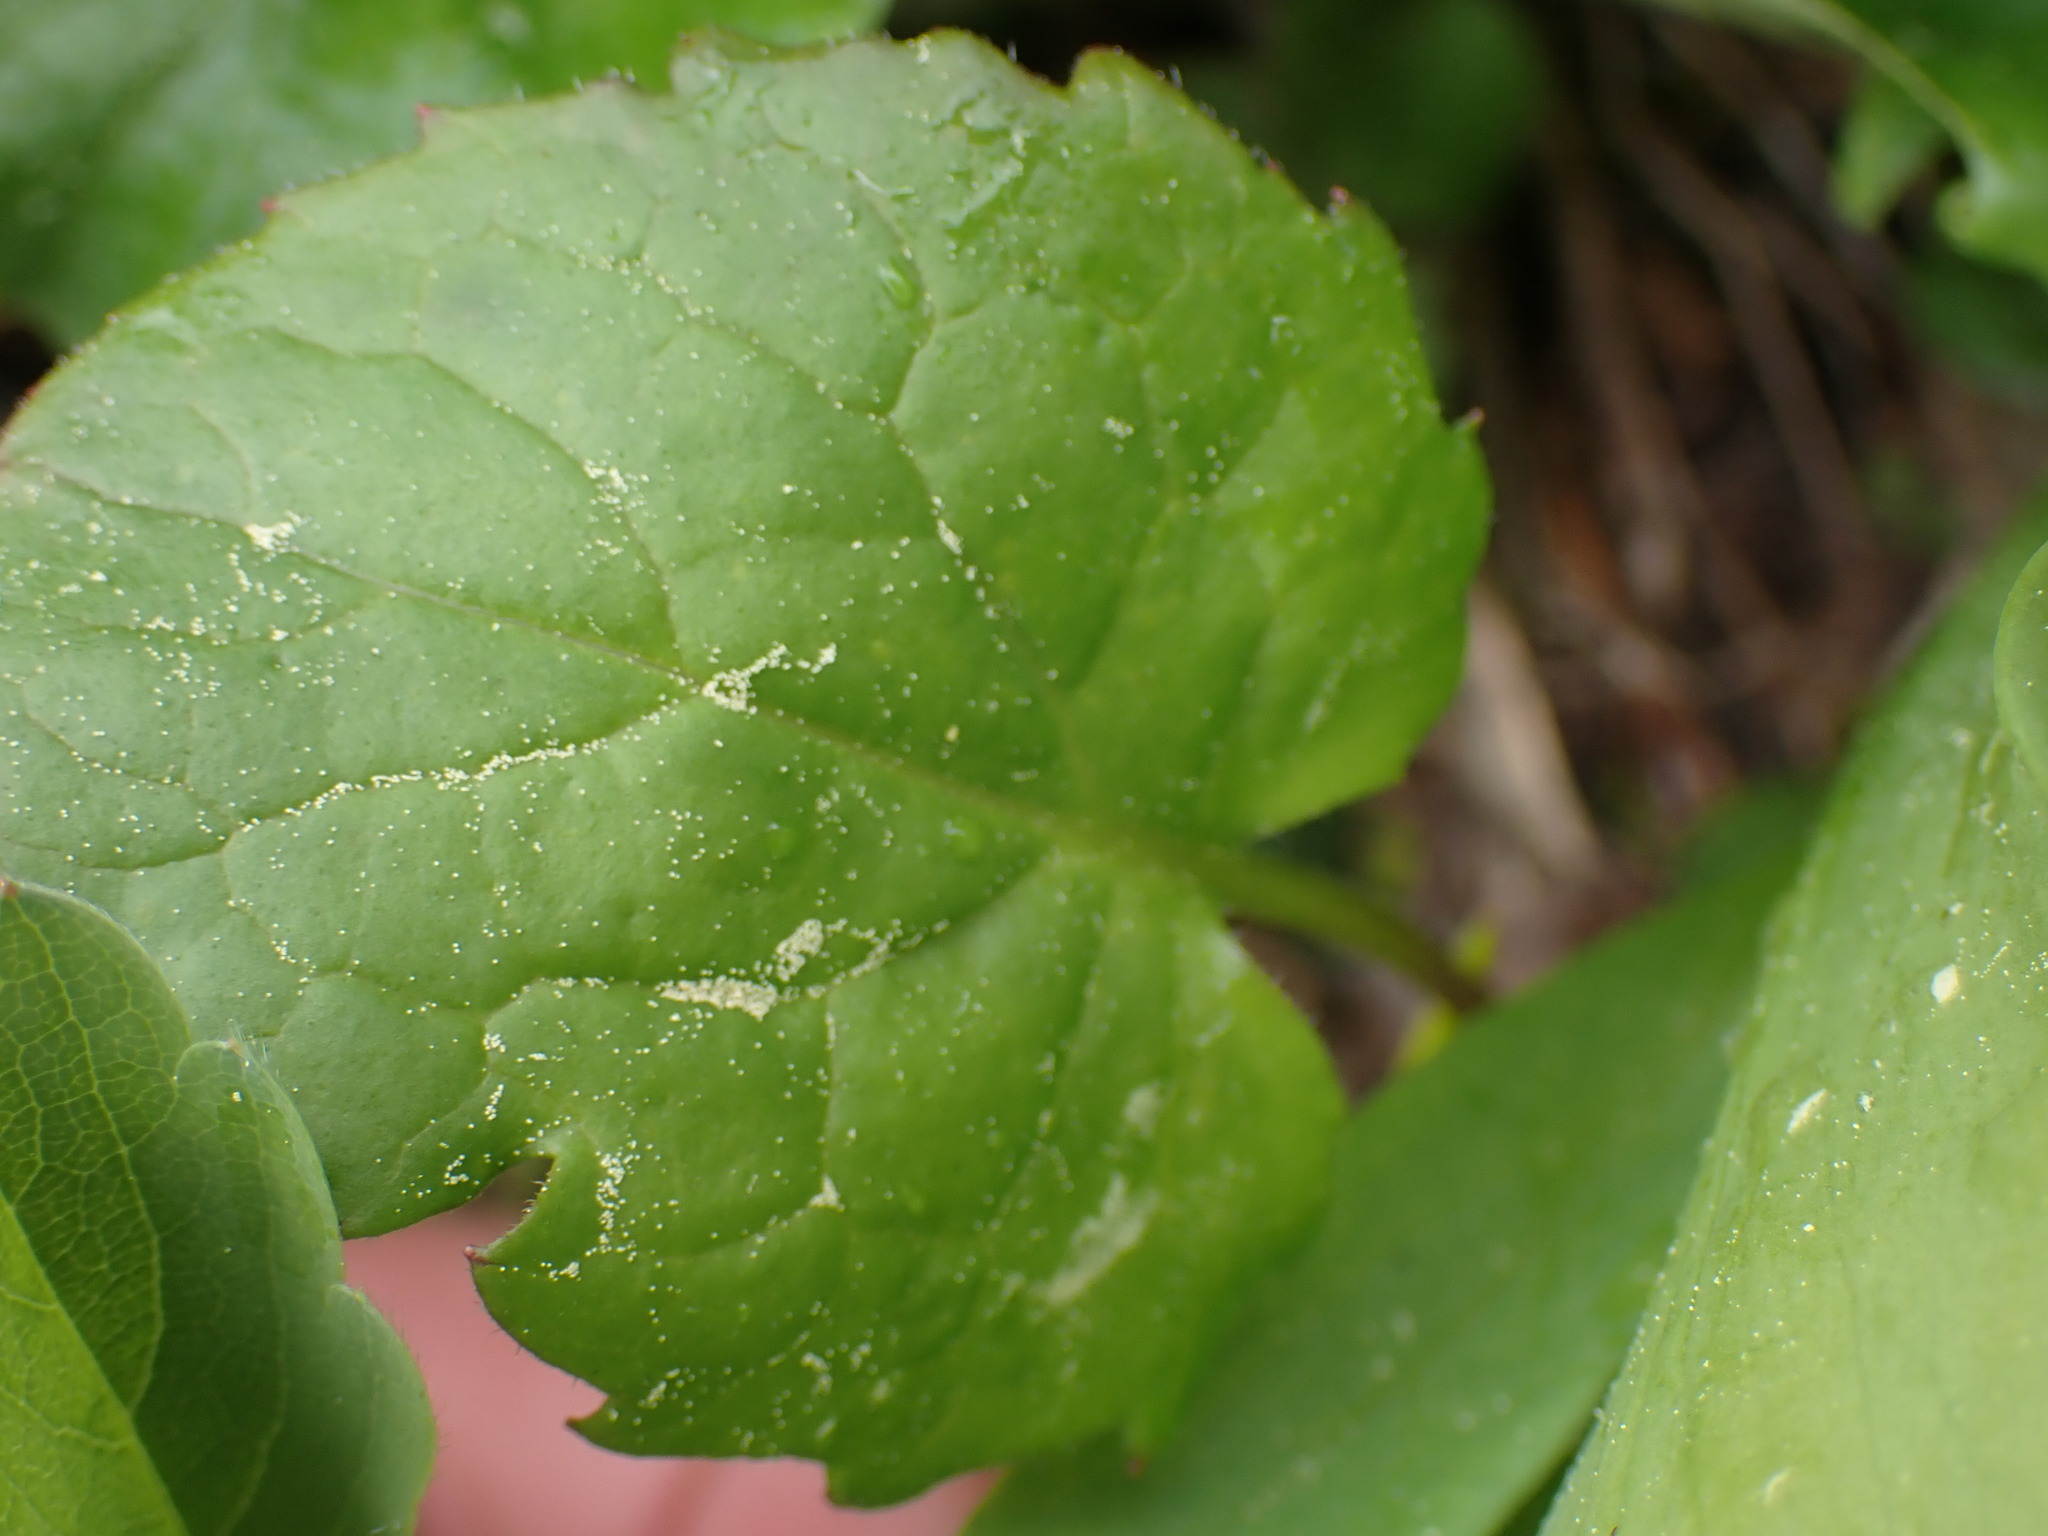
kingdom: Plantae
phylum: Tracheophyta
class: Magnoliopsida
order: Saxifragales
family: Saxifragaceae
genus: Ozomelis
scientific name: Ozomelis trifida
